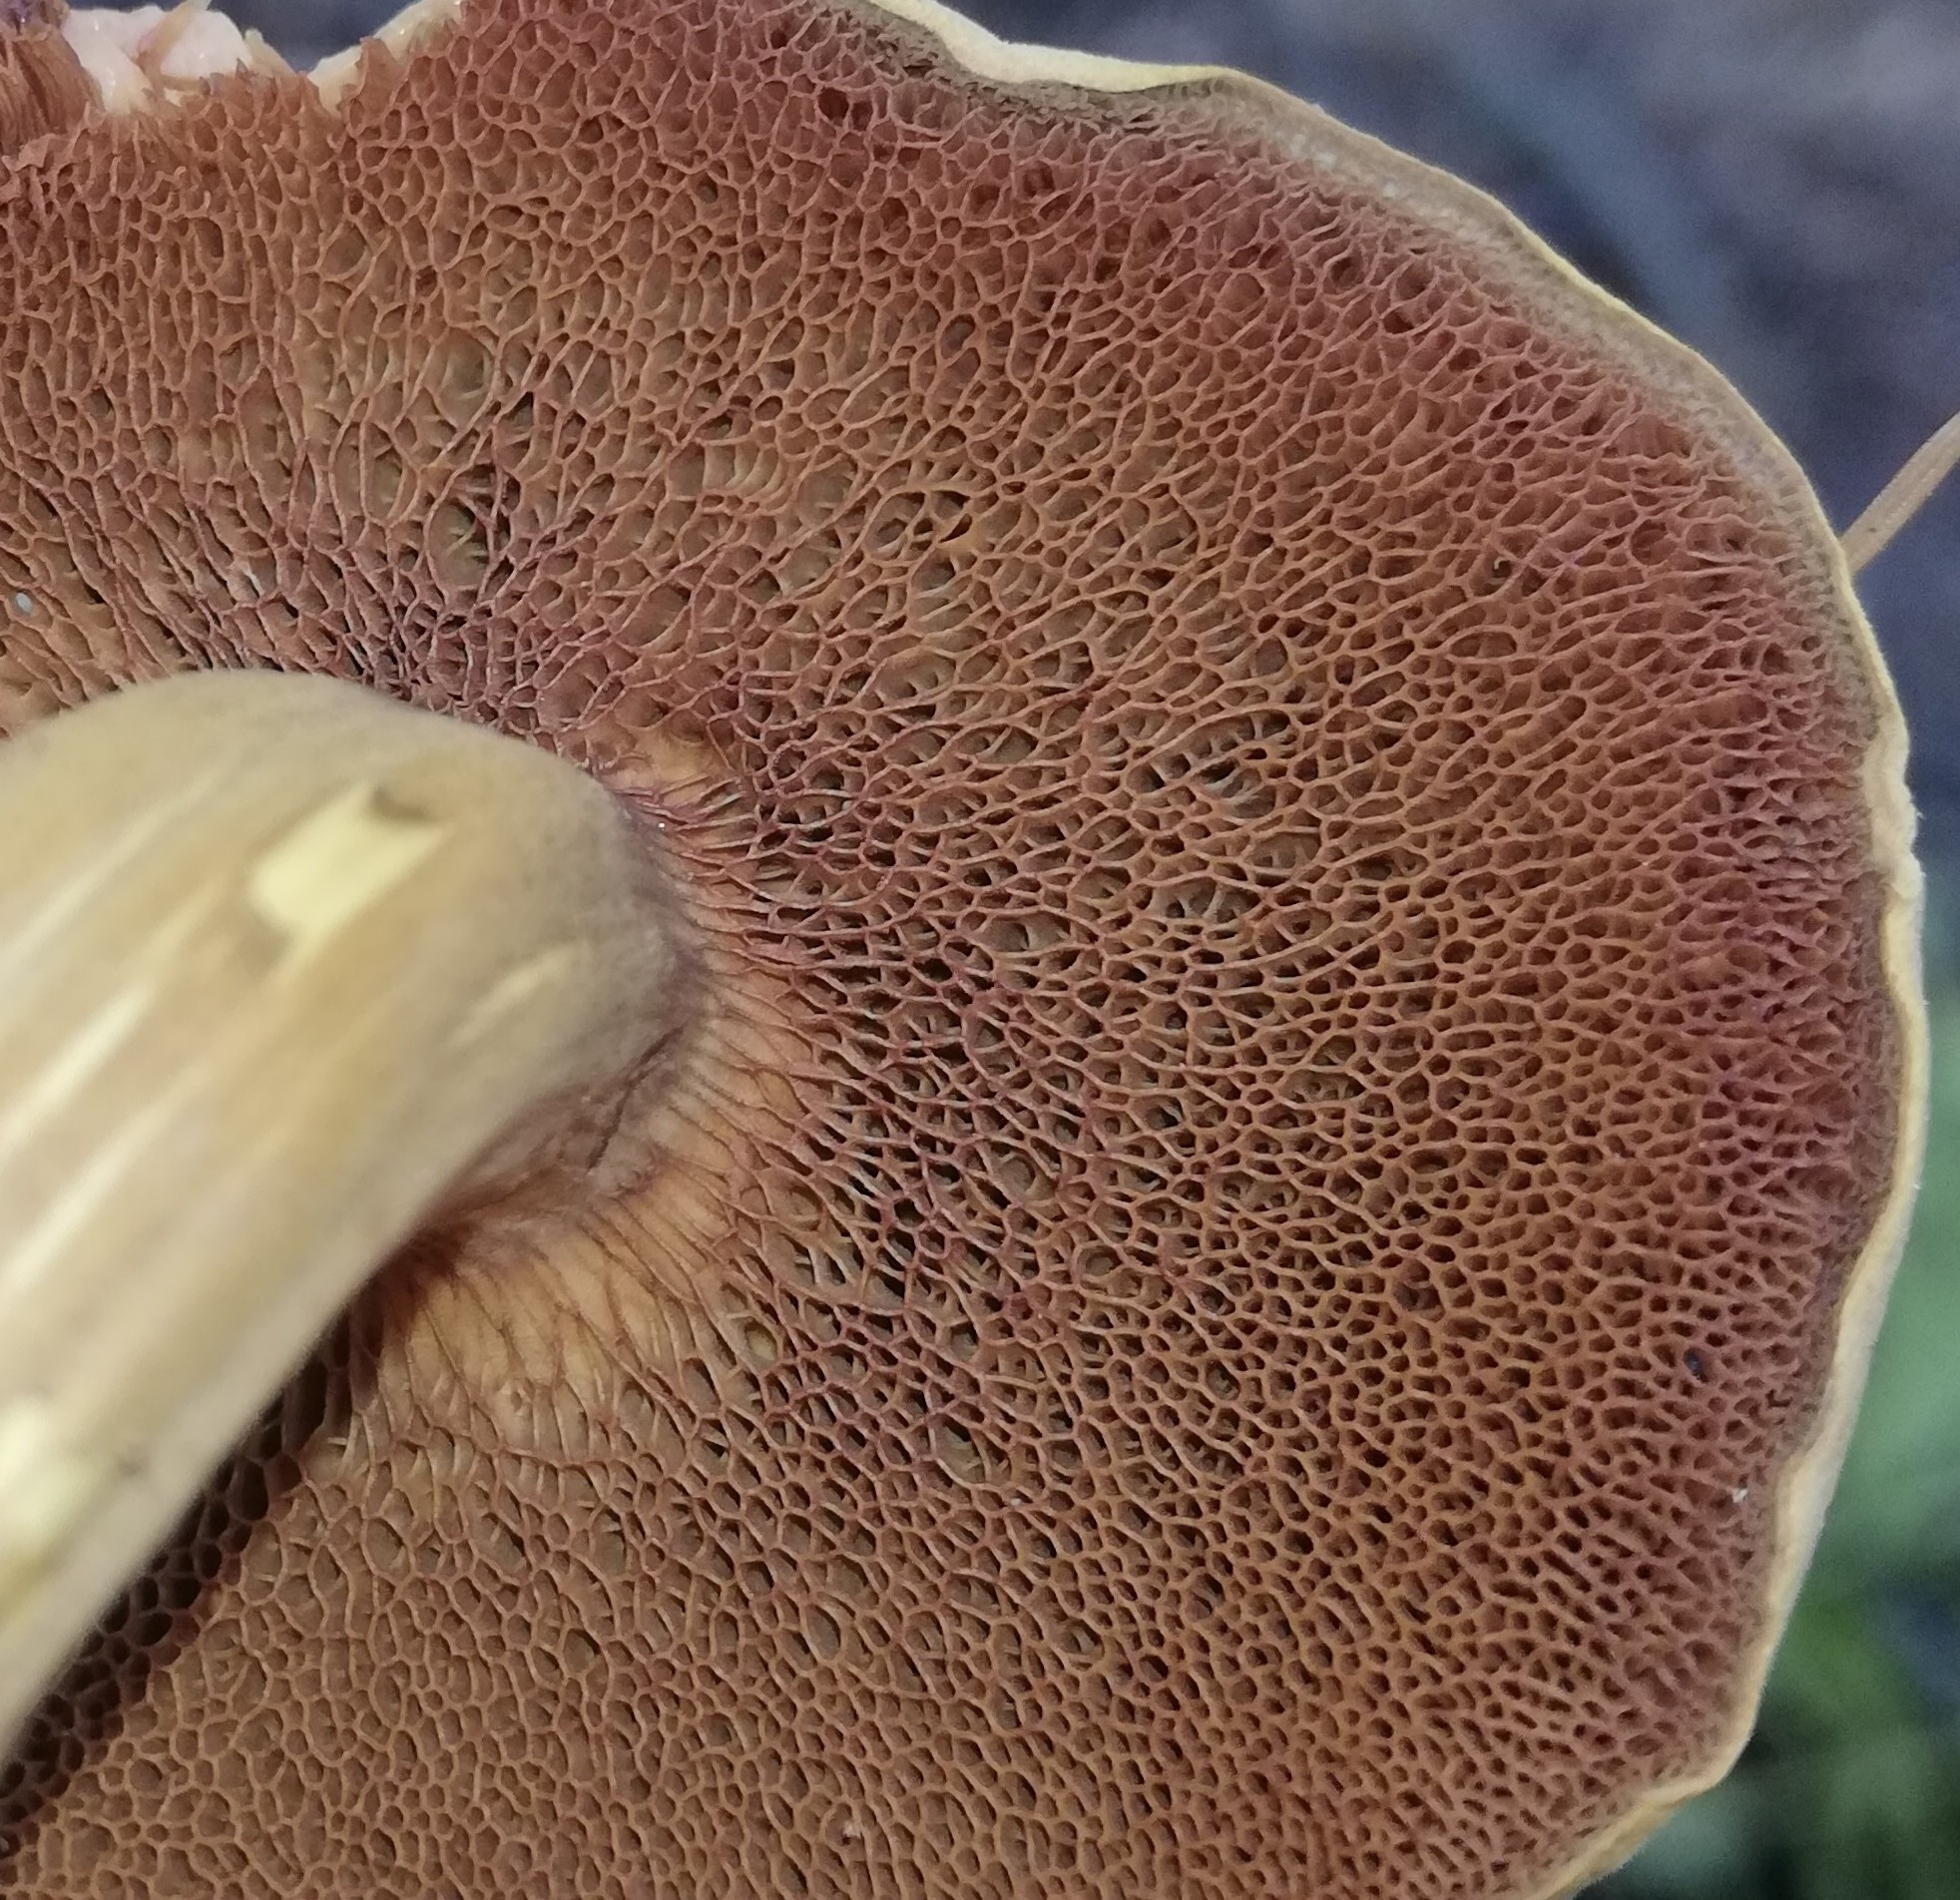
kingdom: Fungi
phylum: Basidiomycota
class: Agaricomycetes
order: Boletales
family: Boletaceae
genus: Chalciporus
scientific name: Chalciporus piperatus
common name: Peppery bolete
